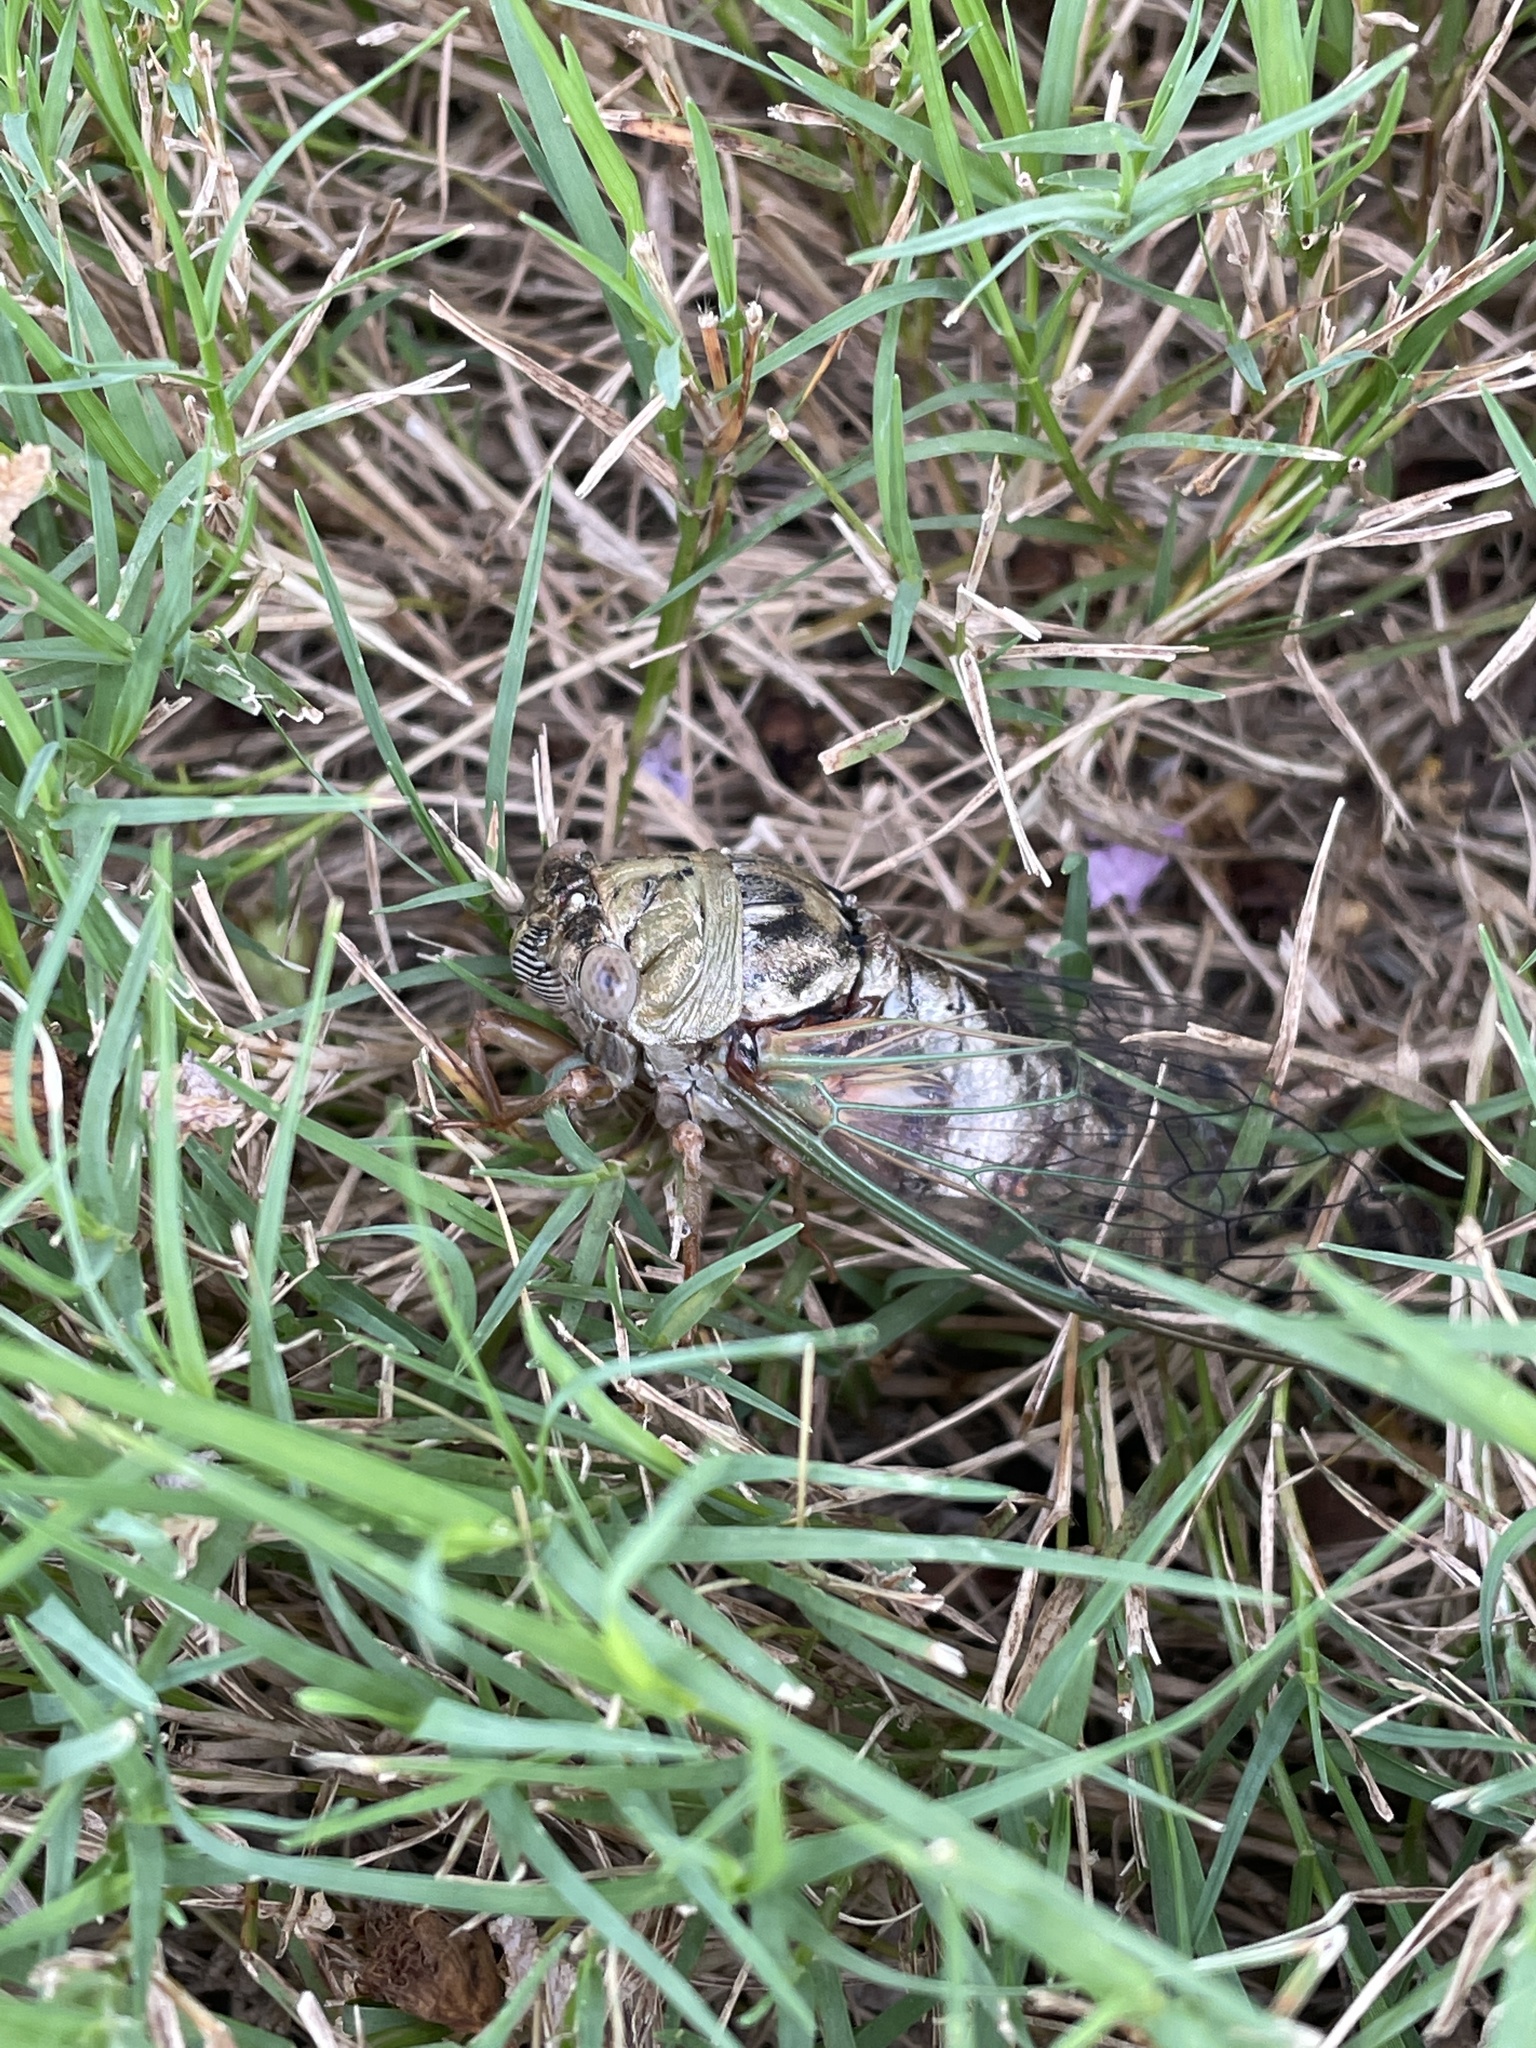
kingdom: Animalia
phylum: Arthropoda
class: Insecta
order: Hemiptera
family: Cicadidae
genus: Megatibicen
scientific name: Megatibicen resh
